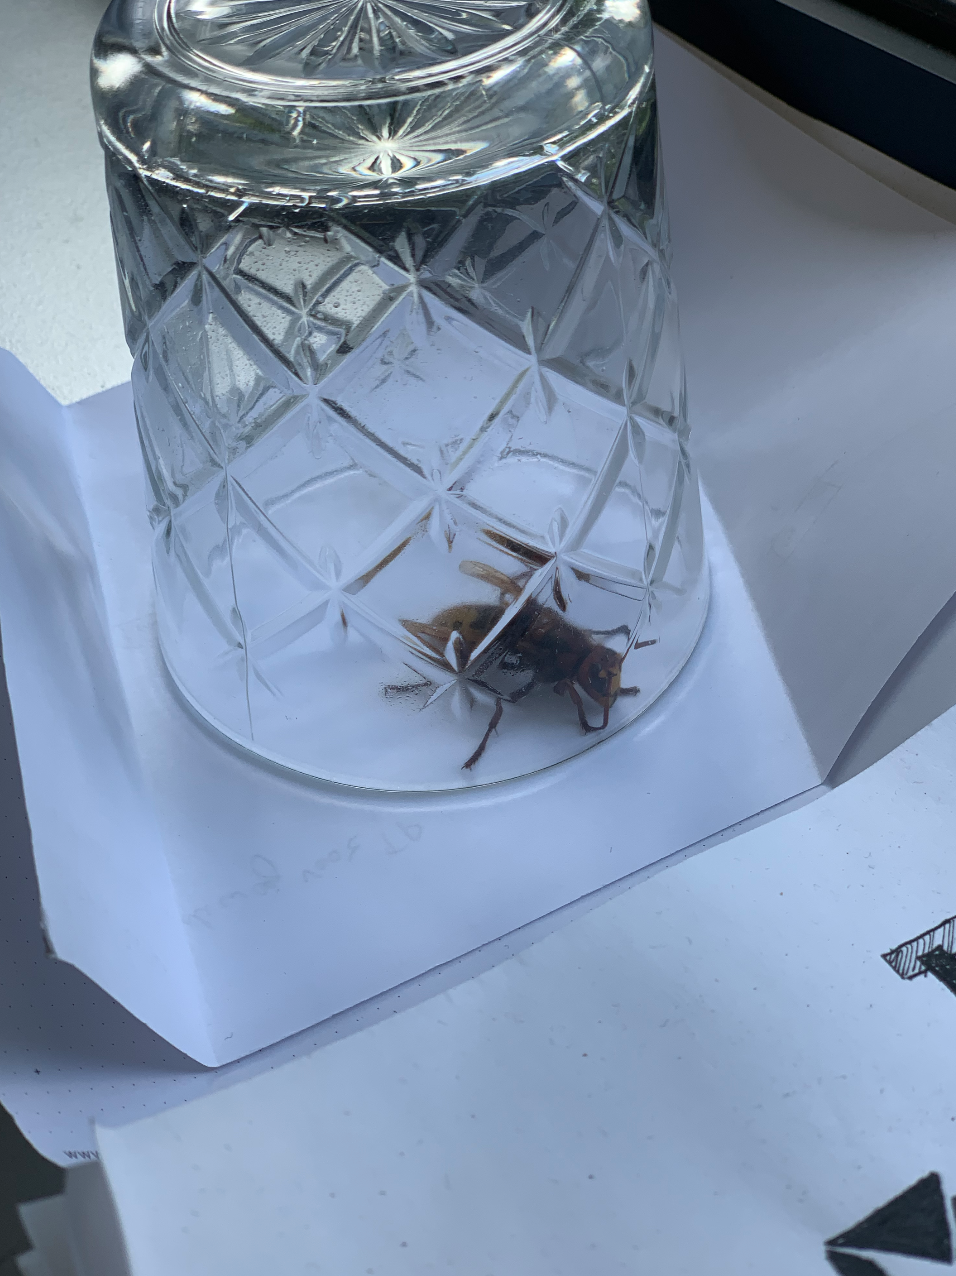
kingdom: Animalia
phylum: Arthropoda
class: Insecta
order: Hymenoptera
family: Vespidae
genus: Vespa
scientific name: Vespa crabro
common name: Hornet
